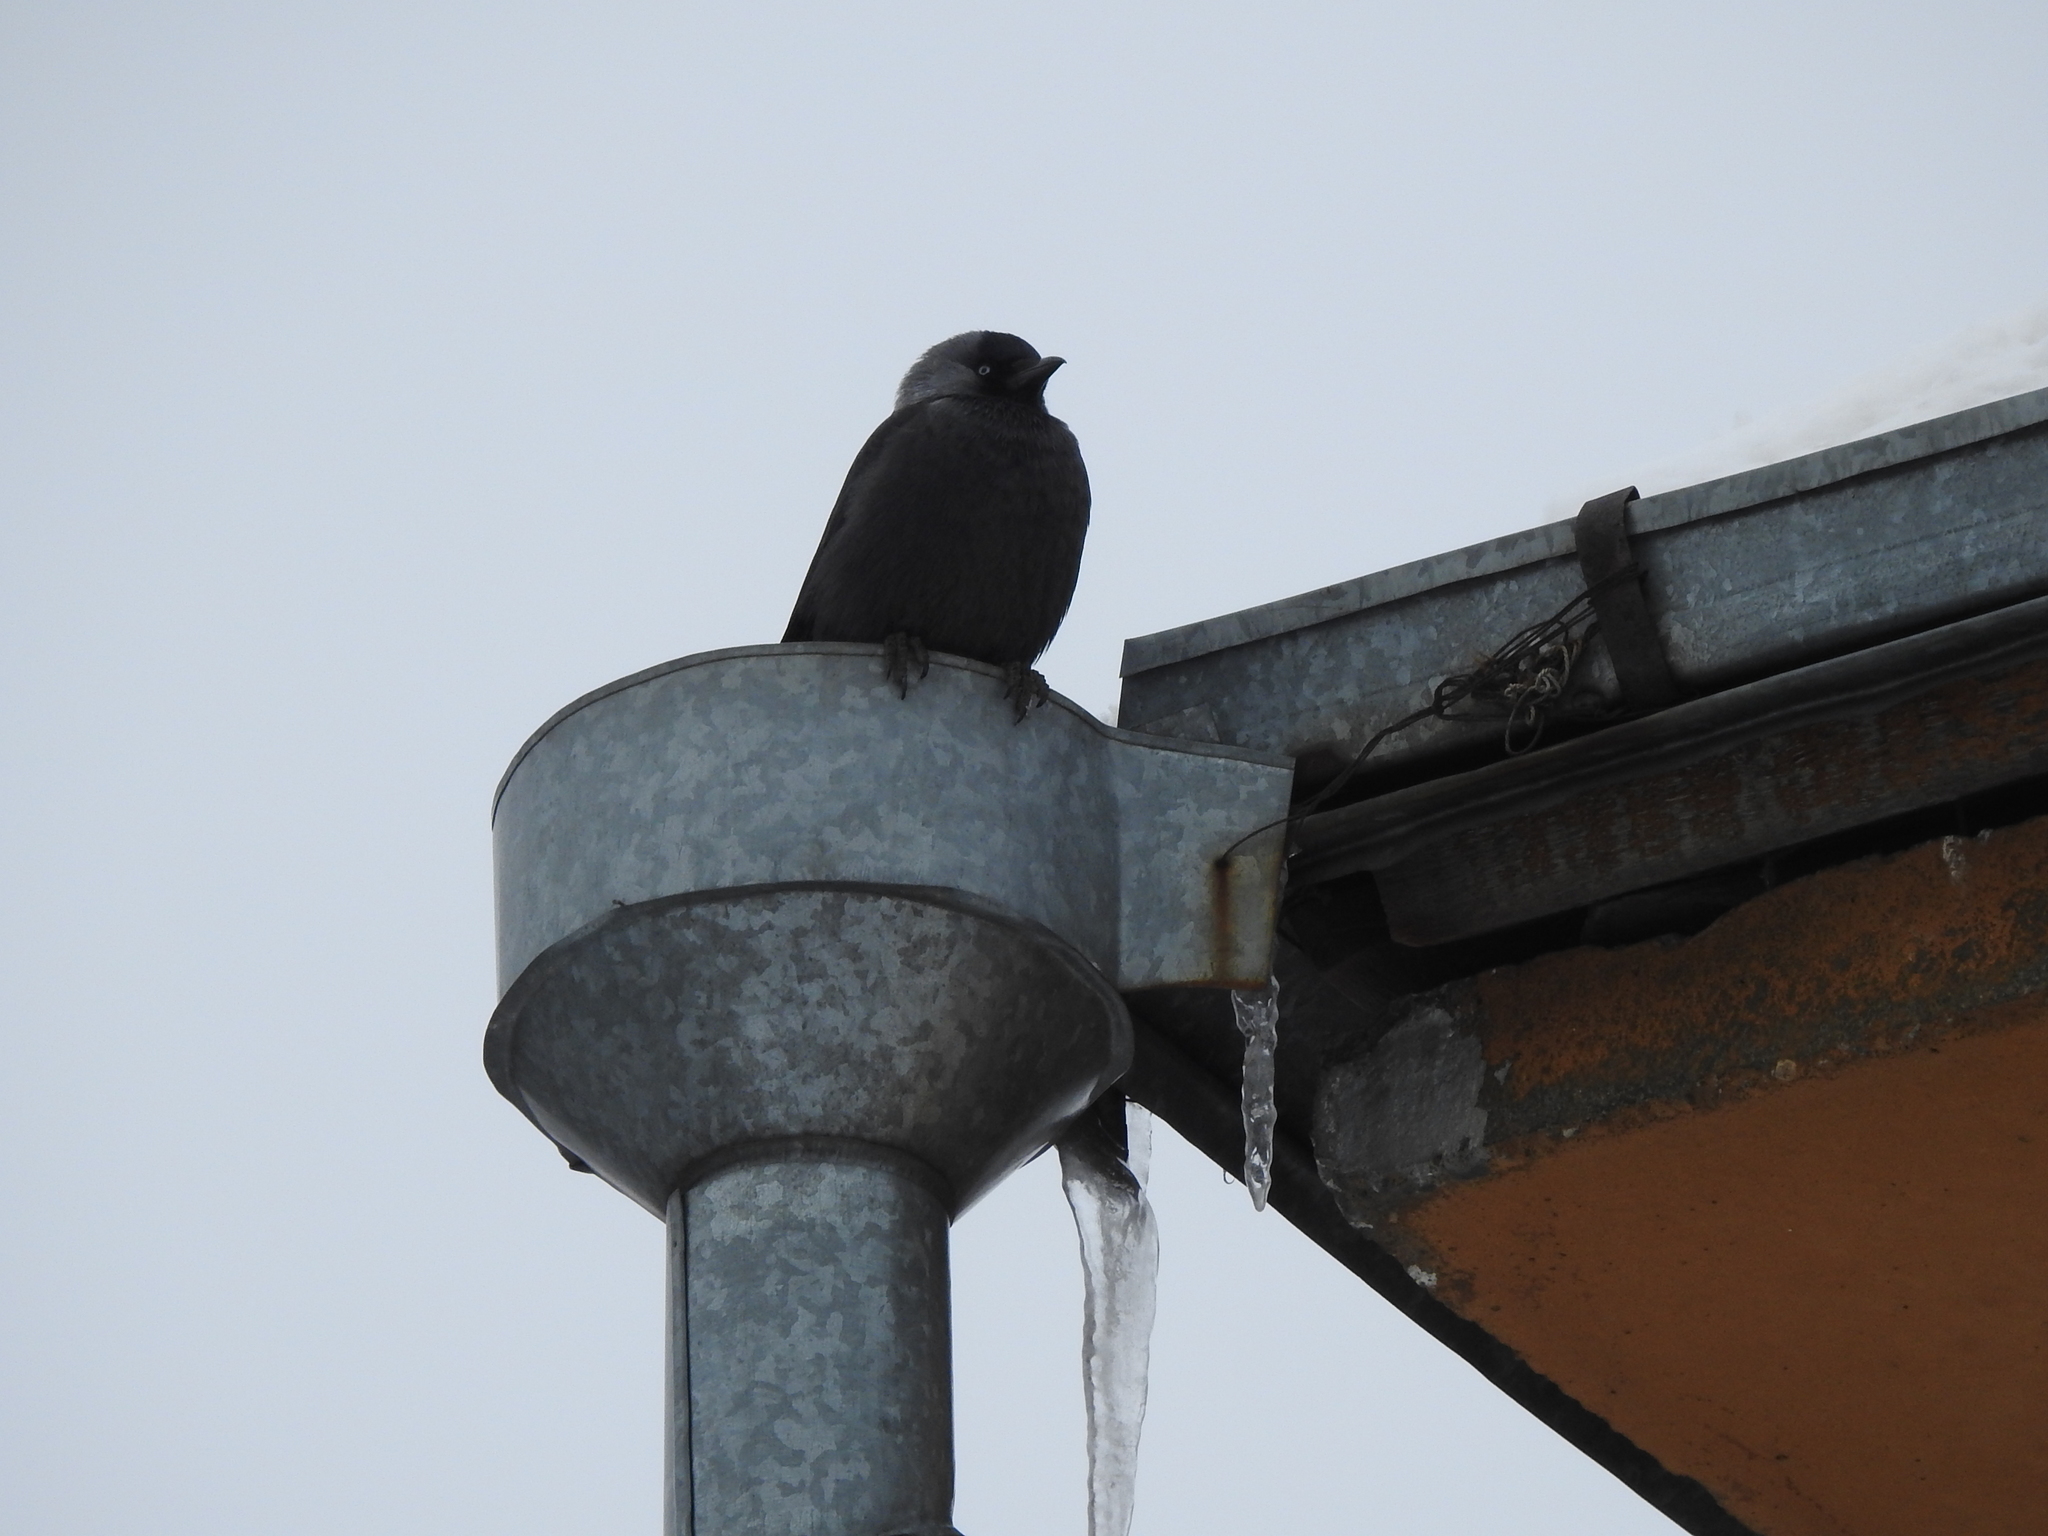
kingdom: Animalia
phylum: Chordata
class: Aves
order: Passeriformes
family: Corvidae
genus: Coloeus
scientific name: Coloeus monedula
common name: Western jackdaw
